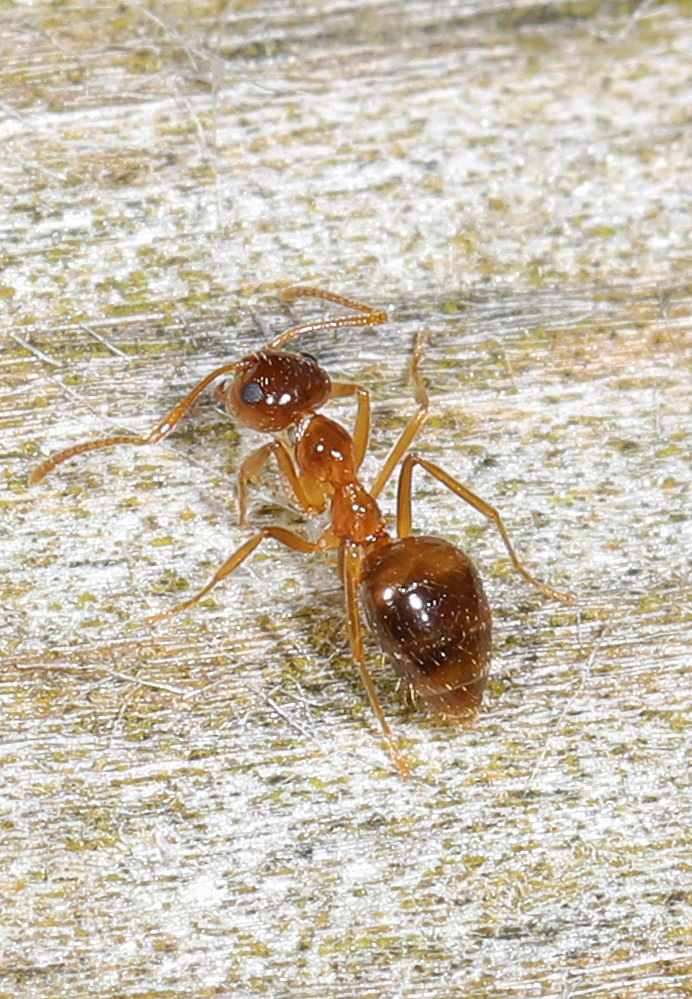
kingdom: Animalia
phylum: Arthropoda
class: Insecta
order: Hymenoptera
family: Formicidae
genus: Prenolepis
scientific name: Prenolepis imparis
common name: Small honey ant
